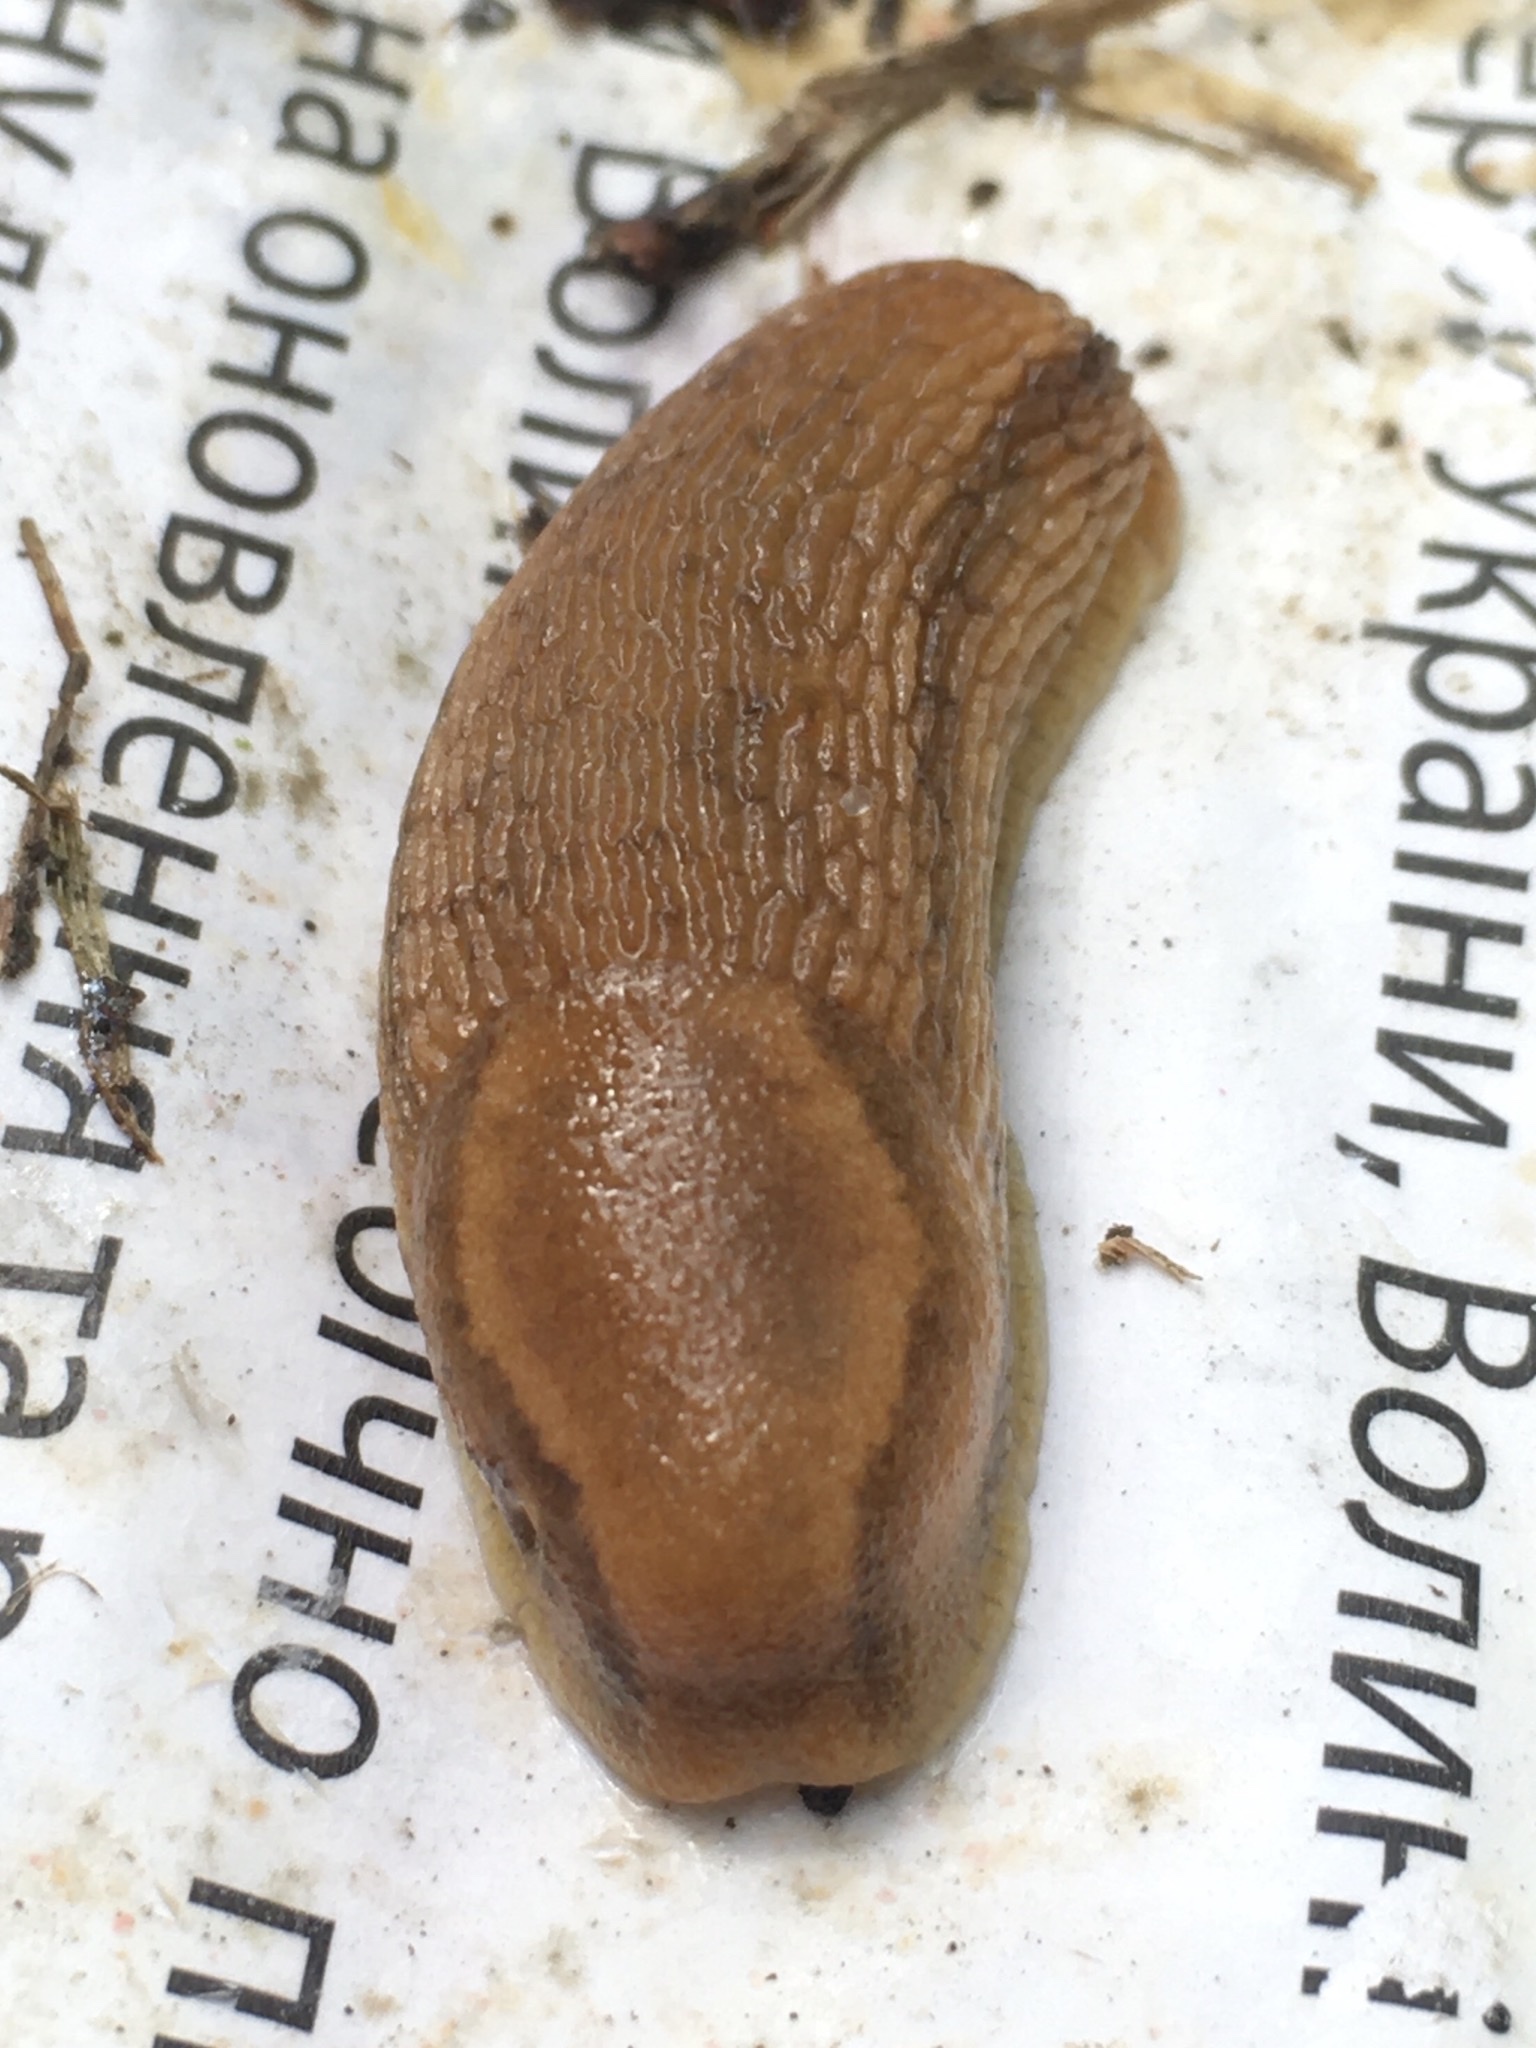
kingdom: Animalia
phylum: Mollusca
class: Gastropoda
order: Stylommatophora
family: Arionidae
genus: Arion
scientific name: Arion fuscus
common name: Northern dusky slug
